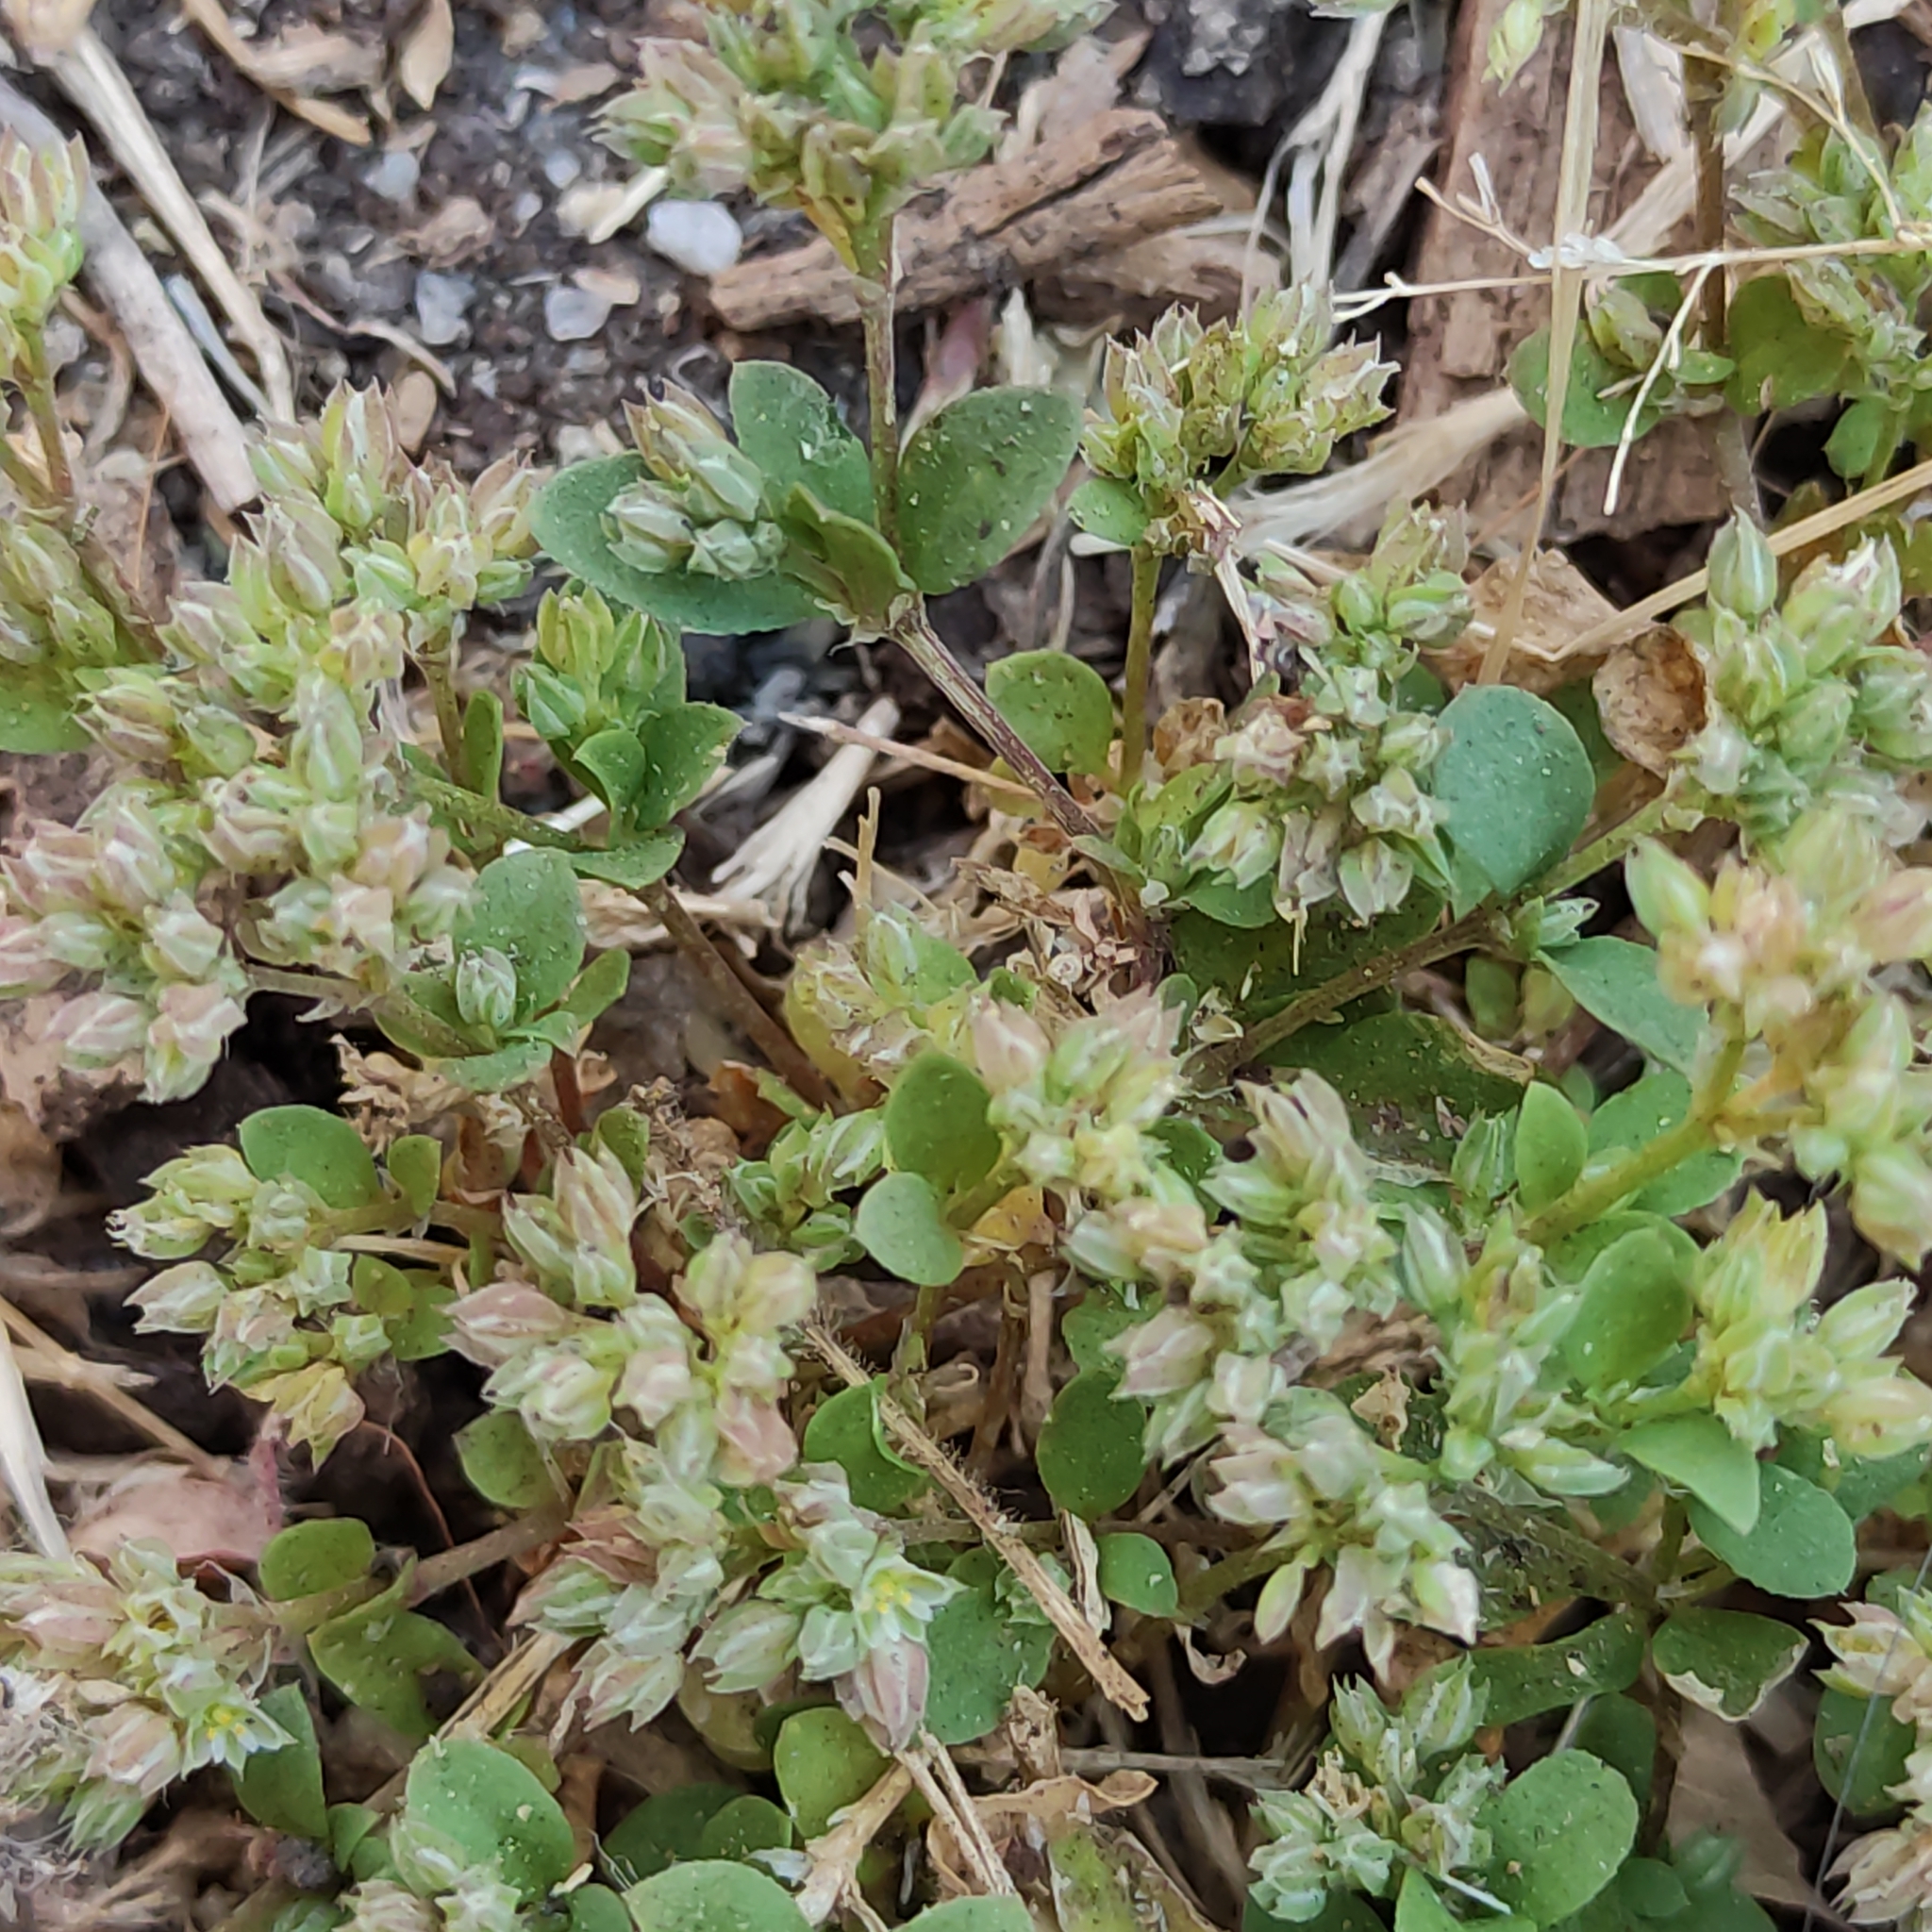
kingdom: Plantae
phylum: Tracheophyta
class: Magnoliopsida
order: Caryophyllales
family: Caryophyllaceae
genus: Polycarpon
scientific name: Polycarpon tetraphyllum
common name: Four-leaved all-seed
